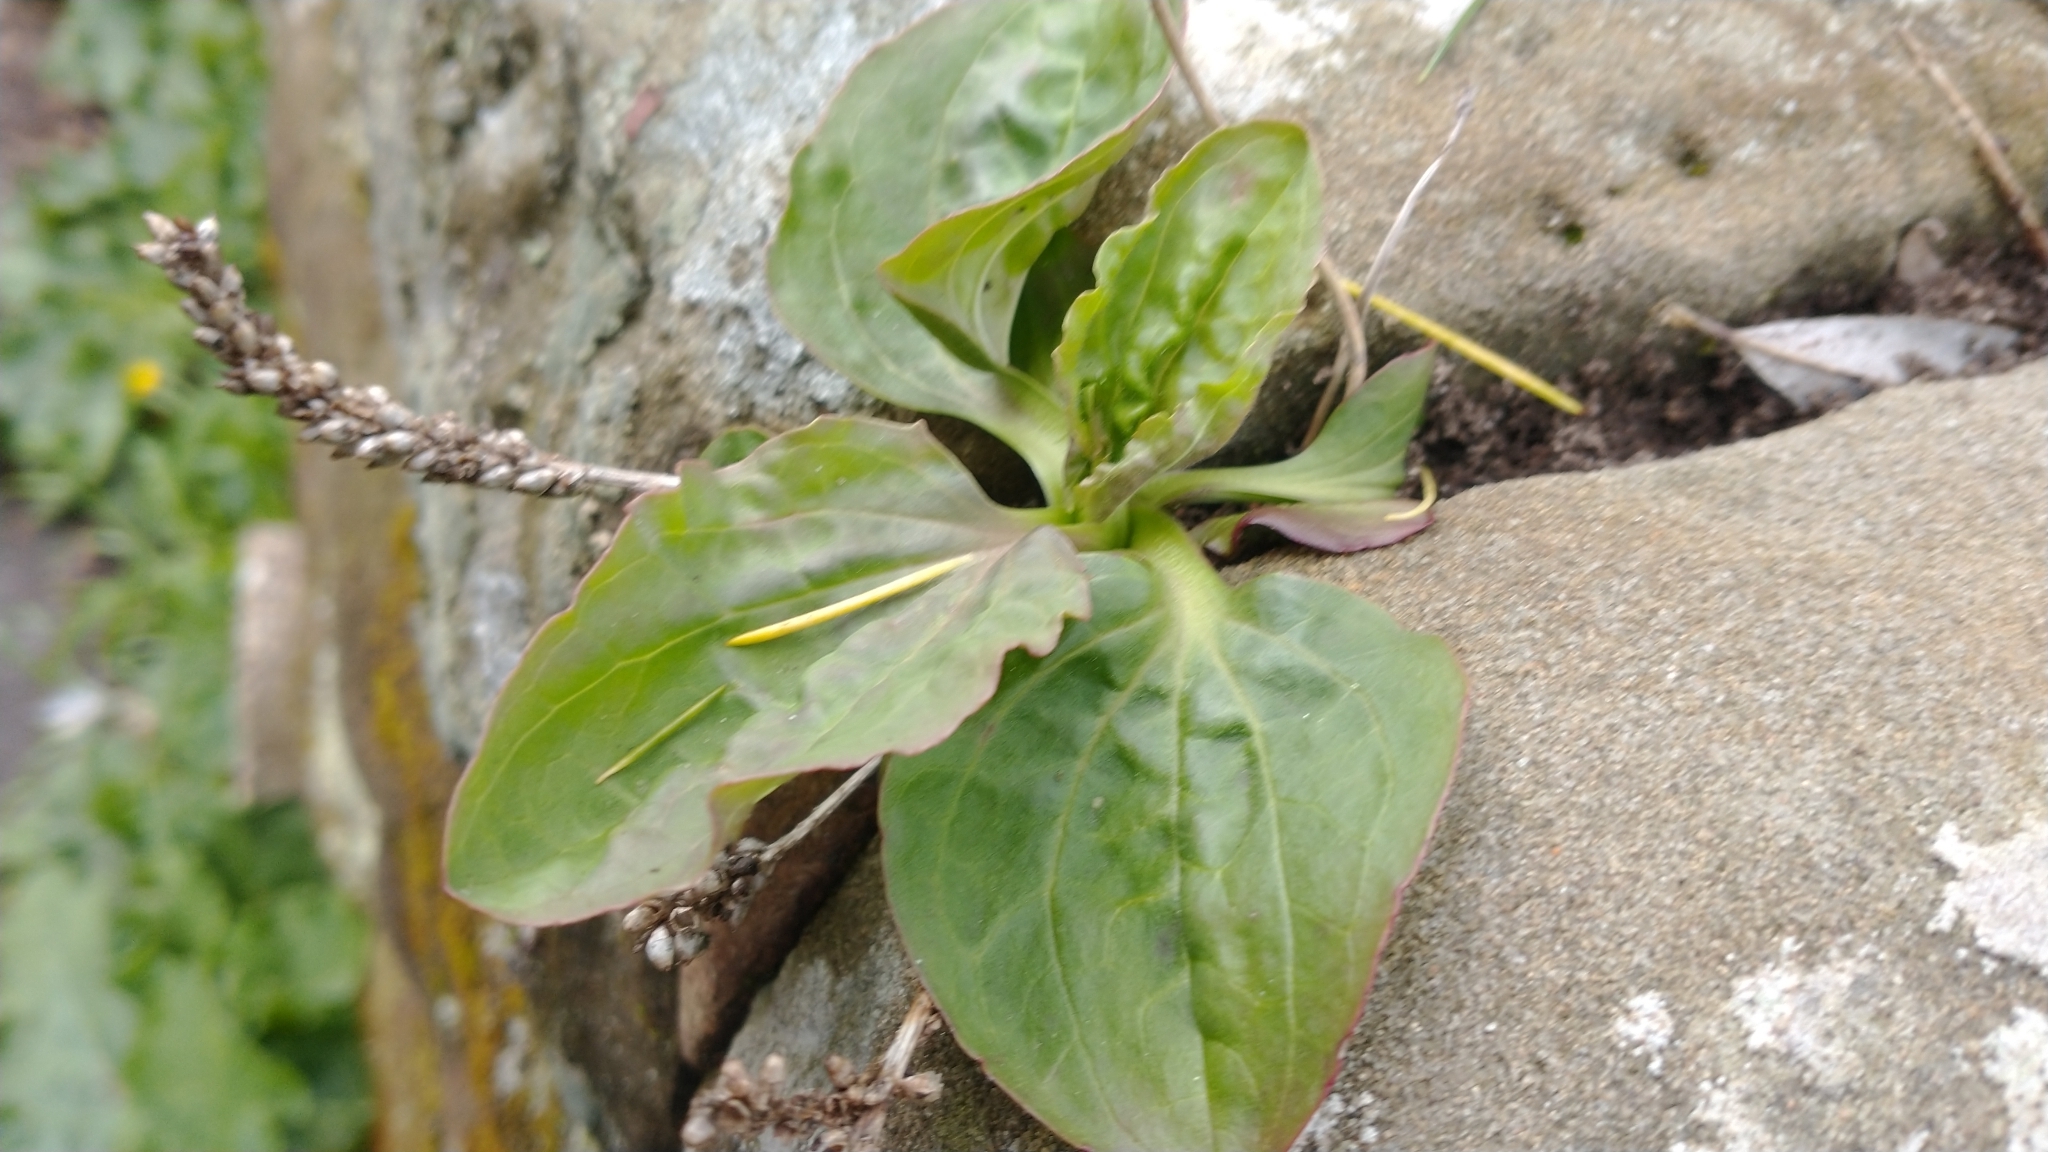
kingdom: Plantae
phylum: Tracheophyta
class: Magnoliopsida
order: Lamiales
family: Plantaginaceae
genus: Plantago
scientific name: Plantago major
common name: Common plantain
